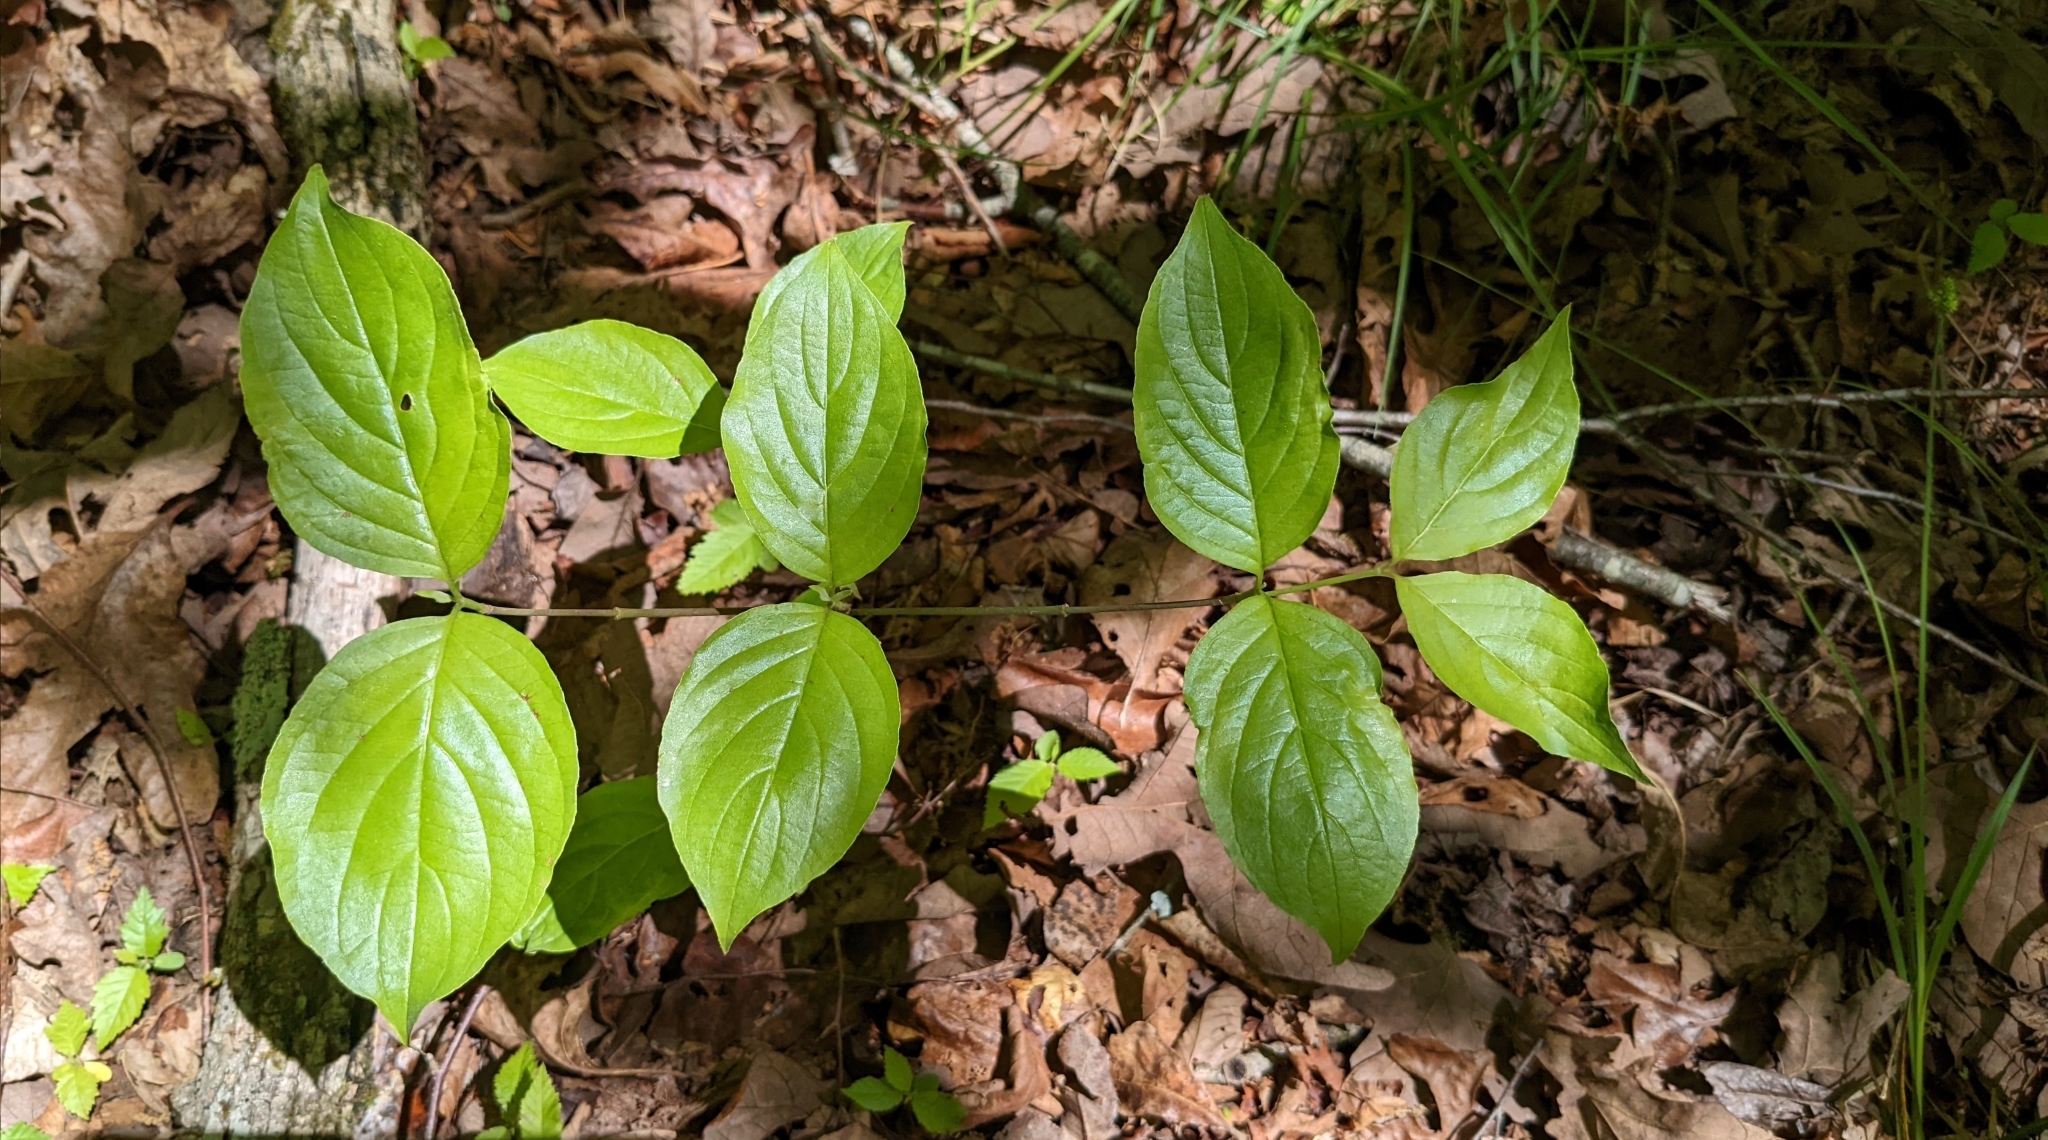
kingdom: Plantae
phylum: Tracheophyta
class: Magnoliopsida
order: Cornales
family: Cornaceae
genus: Cornus
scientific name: Cornus florida
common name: Flowering dogwood
